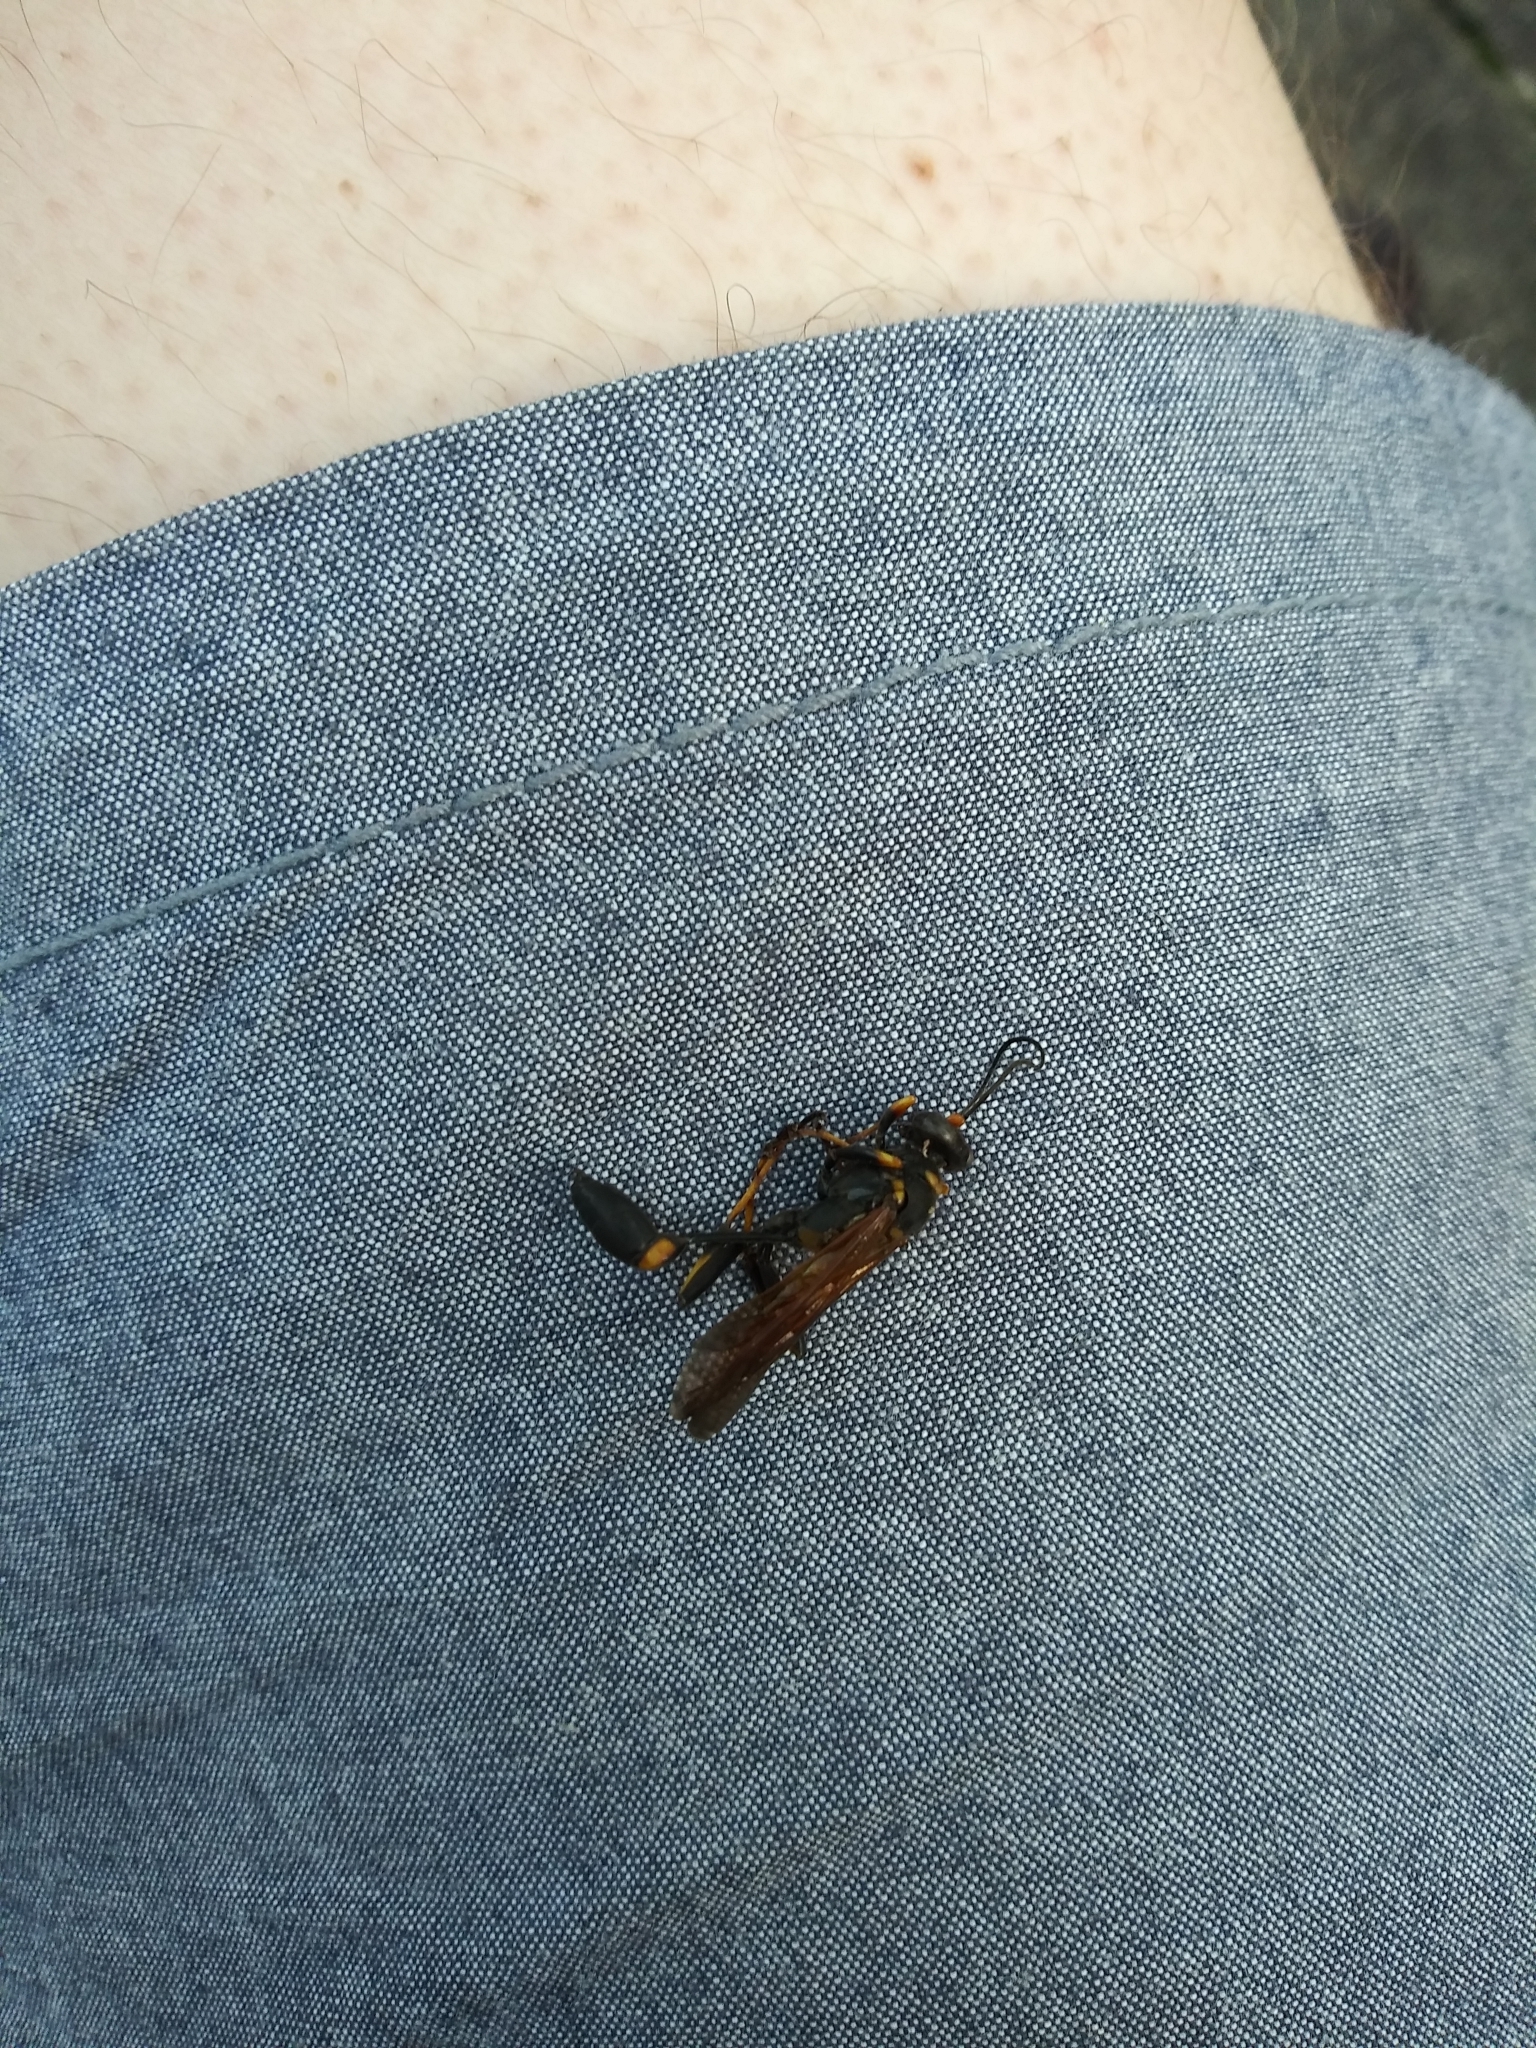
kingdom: Animalia
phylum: Arthropoda
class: Insecta
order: Hymenoptera
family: Sphecidae
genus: Sceliphron
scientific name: Sceliphron caementarium
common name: Mud dauber
